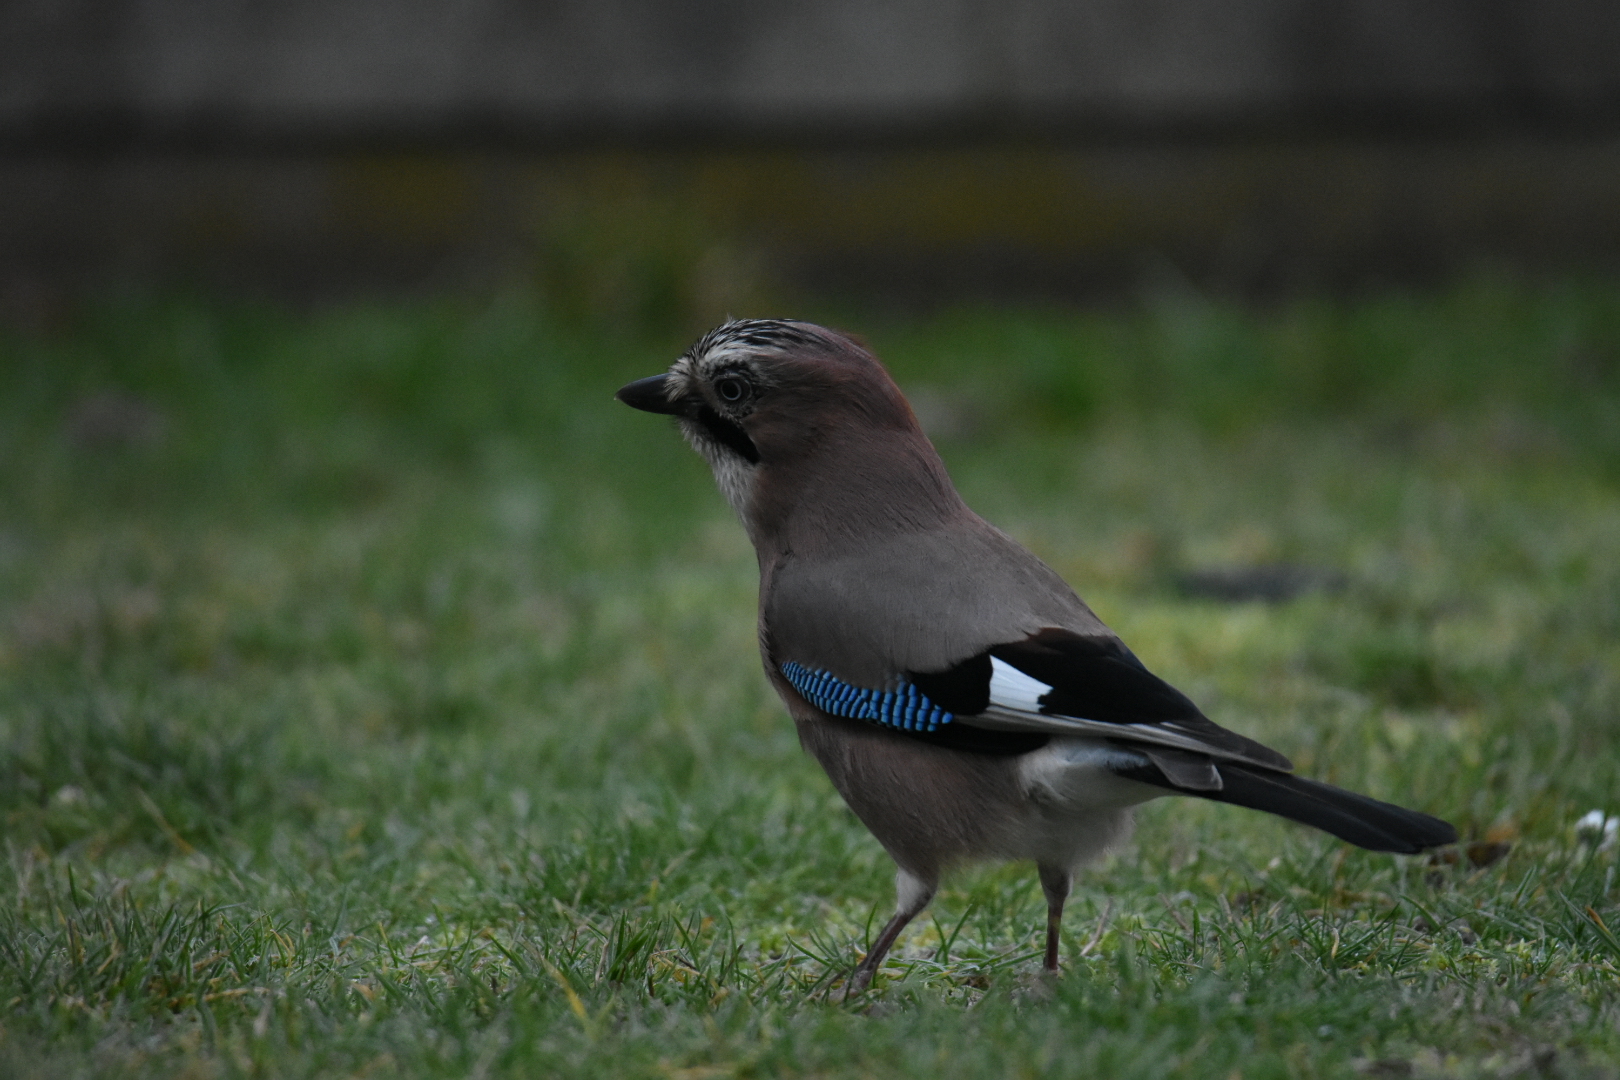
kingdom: Animalia
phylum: Chordata
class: Aves
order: Passeriformes
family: Corvidae
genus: Garrulus
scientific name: Garrulus glandarius
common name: Eurasian jay
